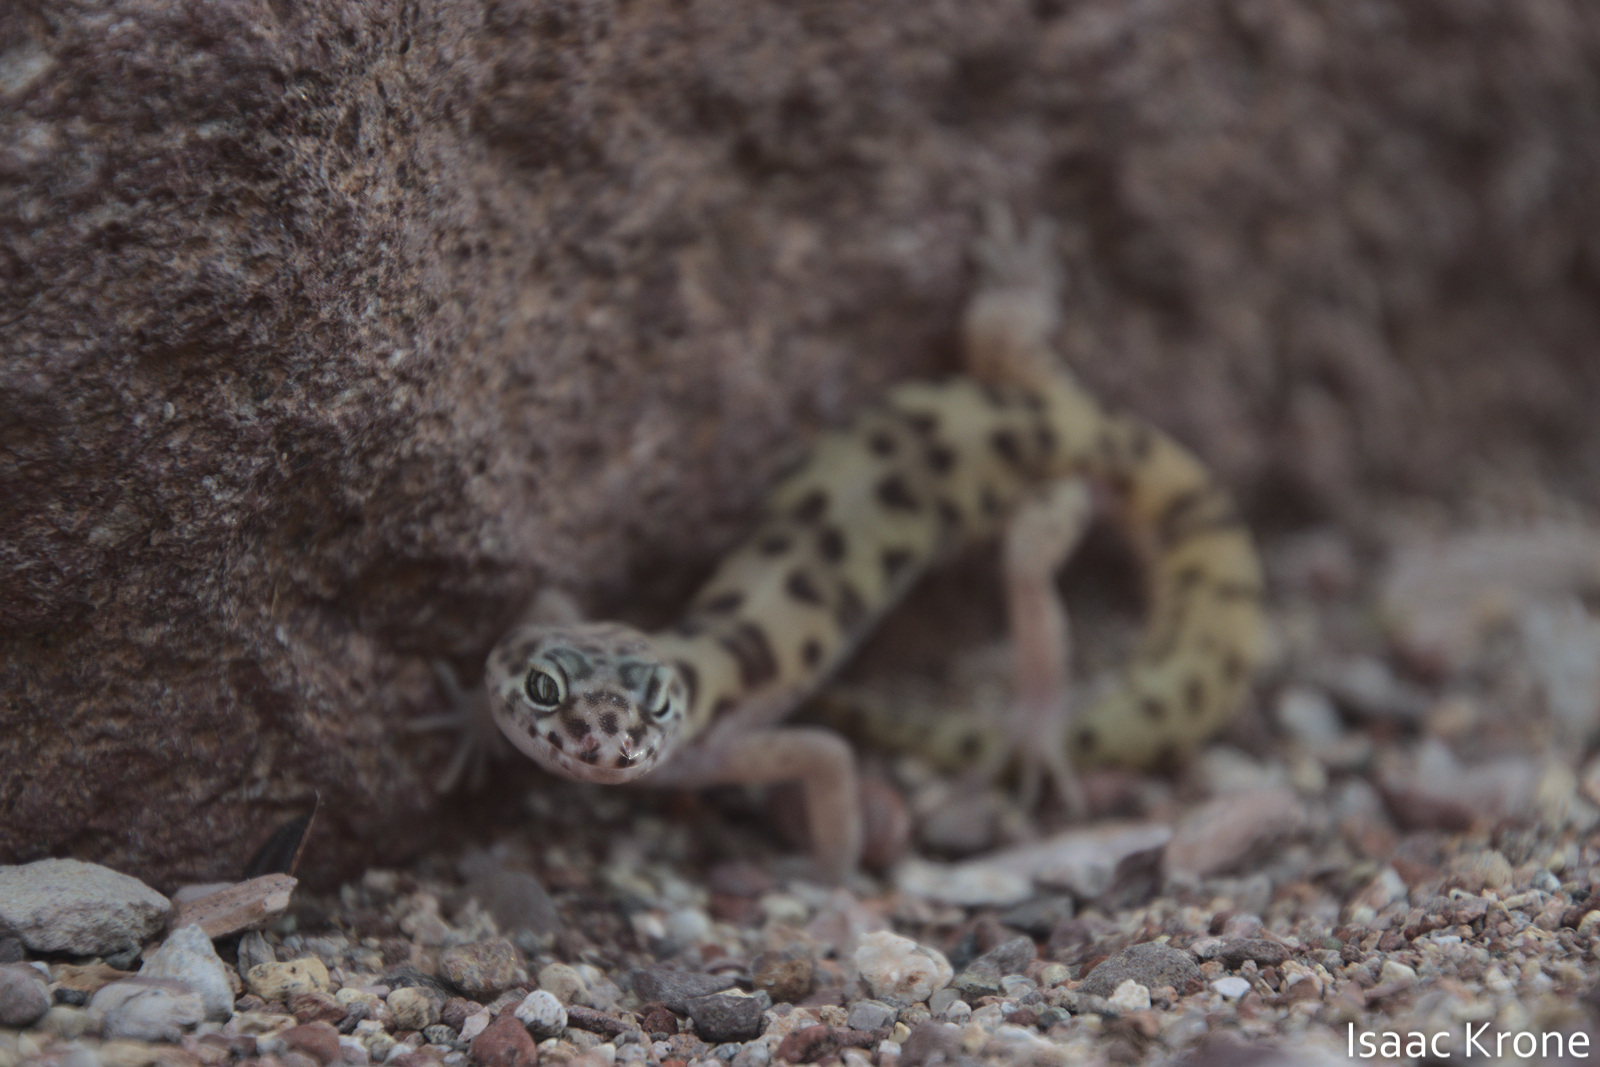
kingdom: Animalia
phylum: Chordata
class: Squamata
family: Eublepharidae
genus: Coleonyx
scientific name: Coleonyx variegatus
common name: Western banded gecko
